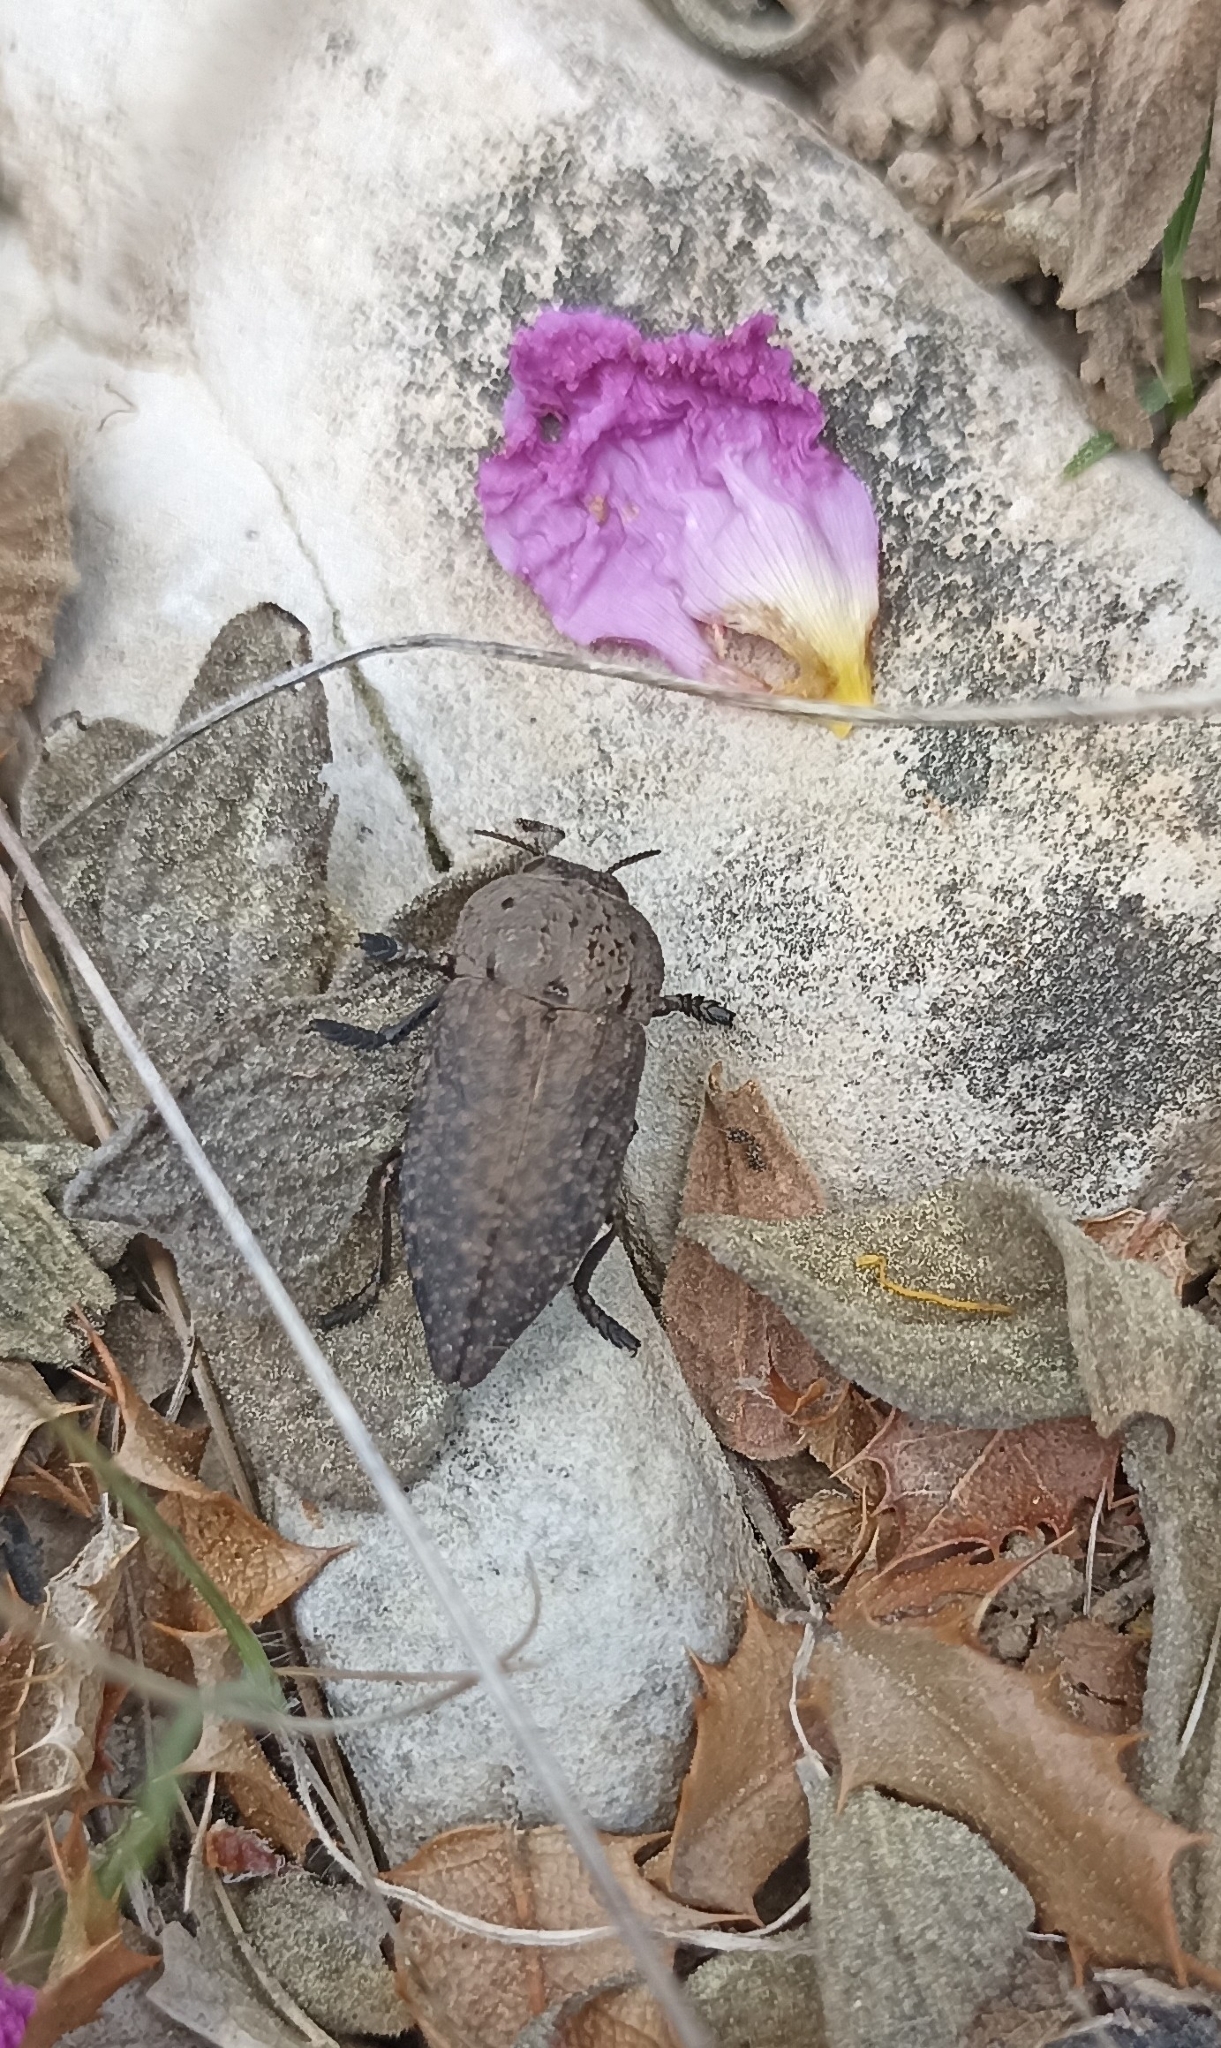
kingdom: Animalia
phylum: Arthropoda
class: Insecta
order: Coleoptera
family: Buprestidae
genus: Capnodis
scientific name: Capnodis tenebricosa
